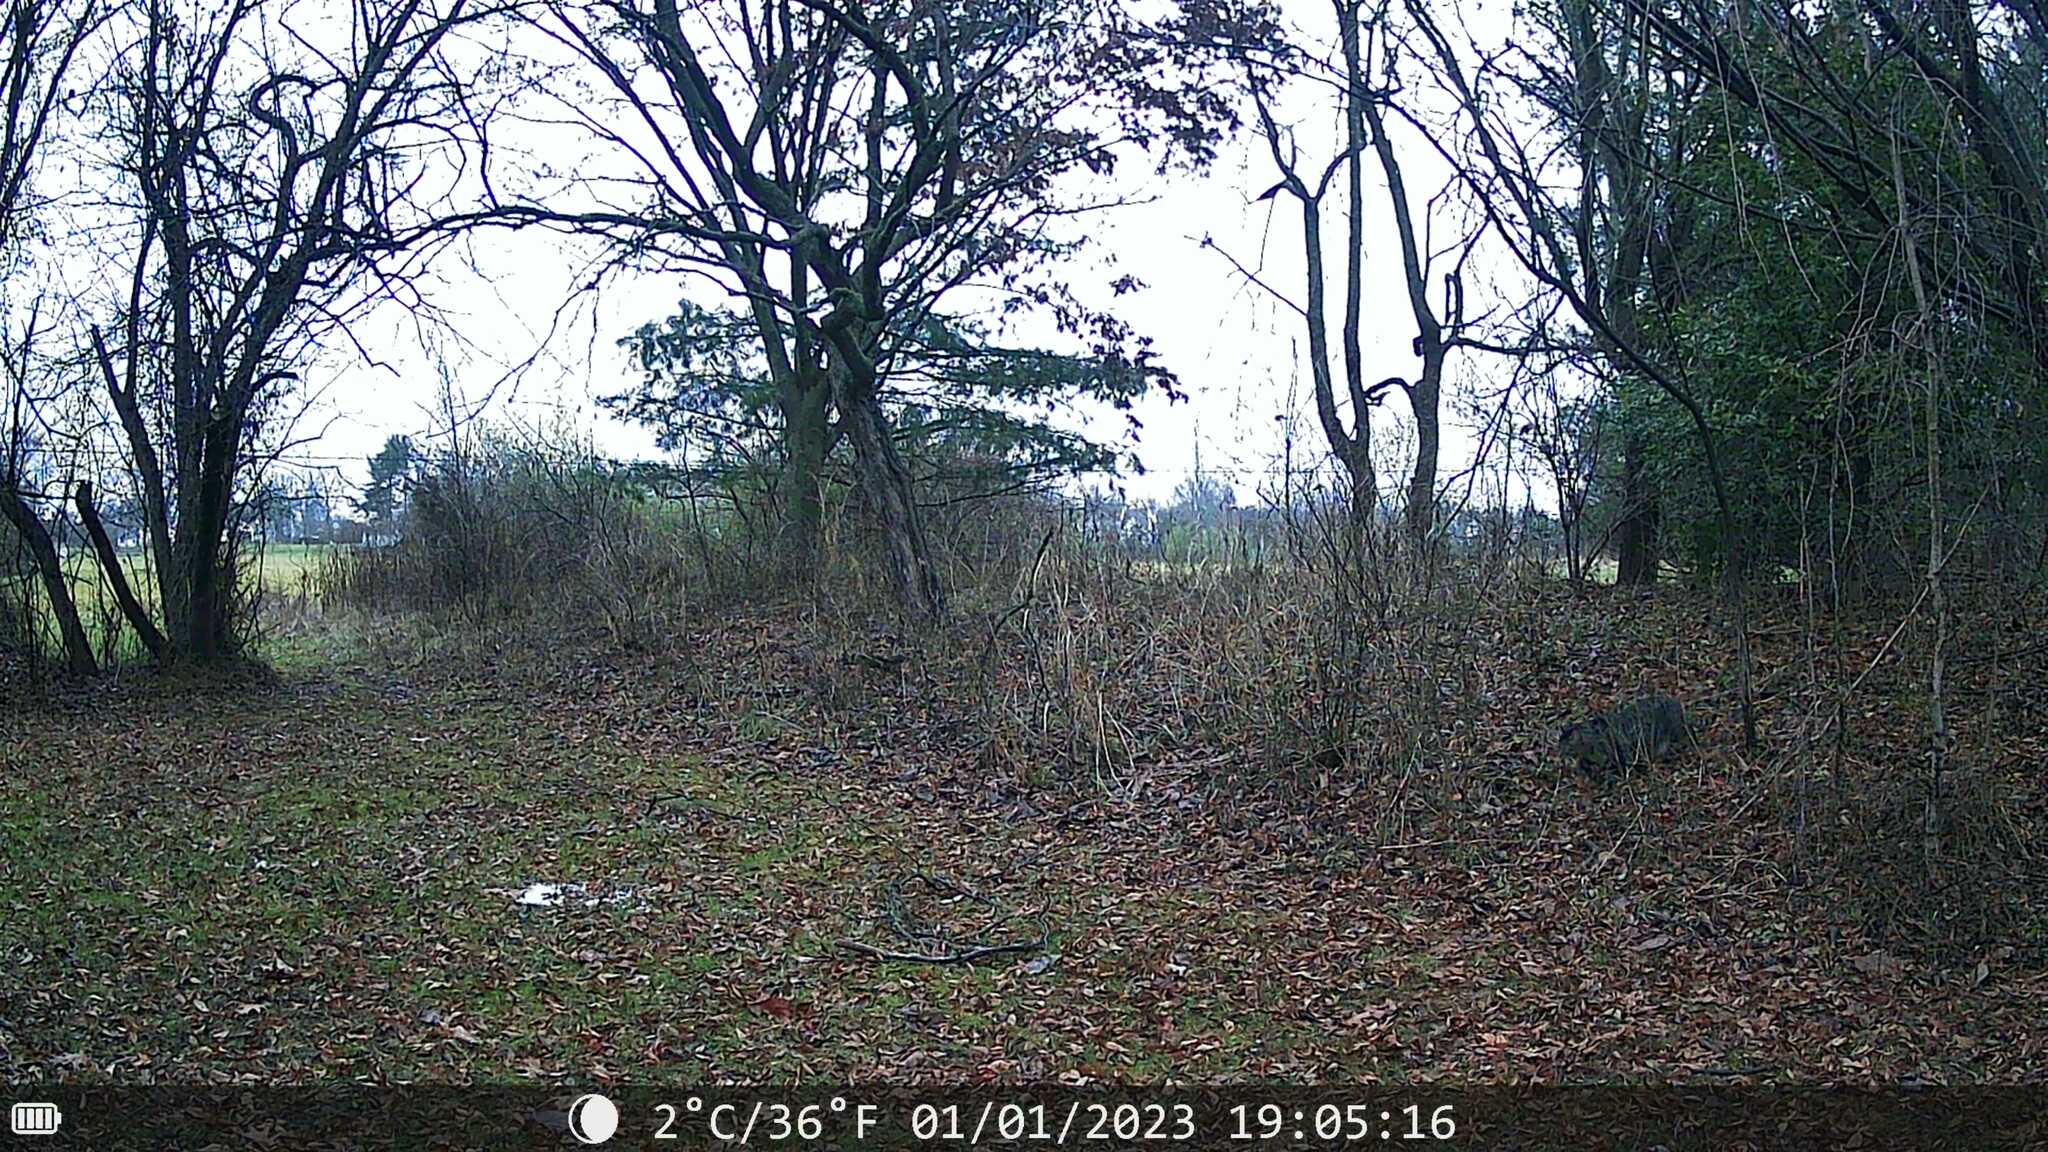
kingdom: Animalia
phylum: Chordata
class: Mammalia
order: Carnivora
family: Felidae
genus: Felis
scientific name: Felis catus
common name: Domestic cat
